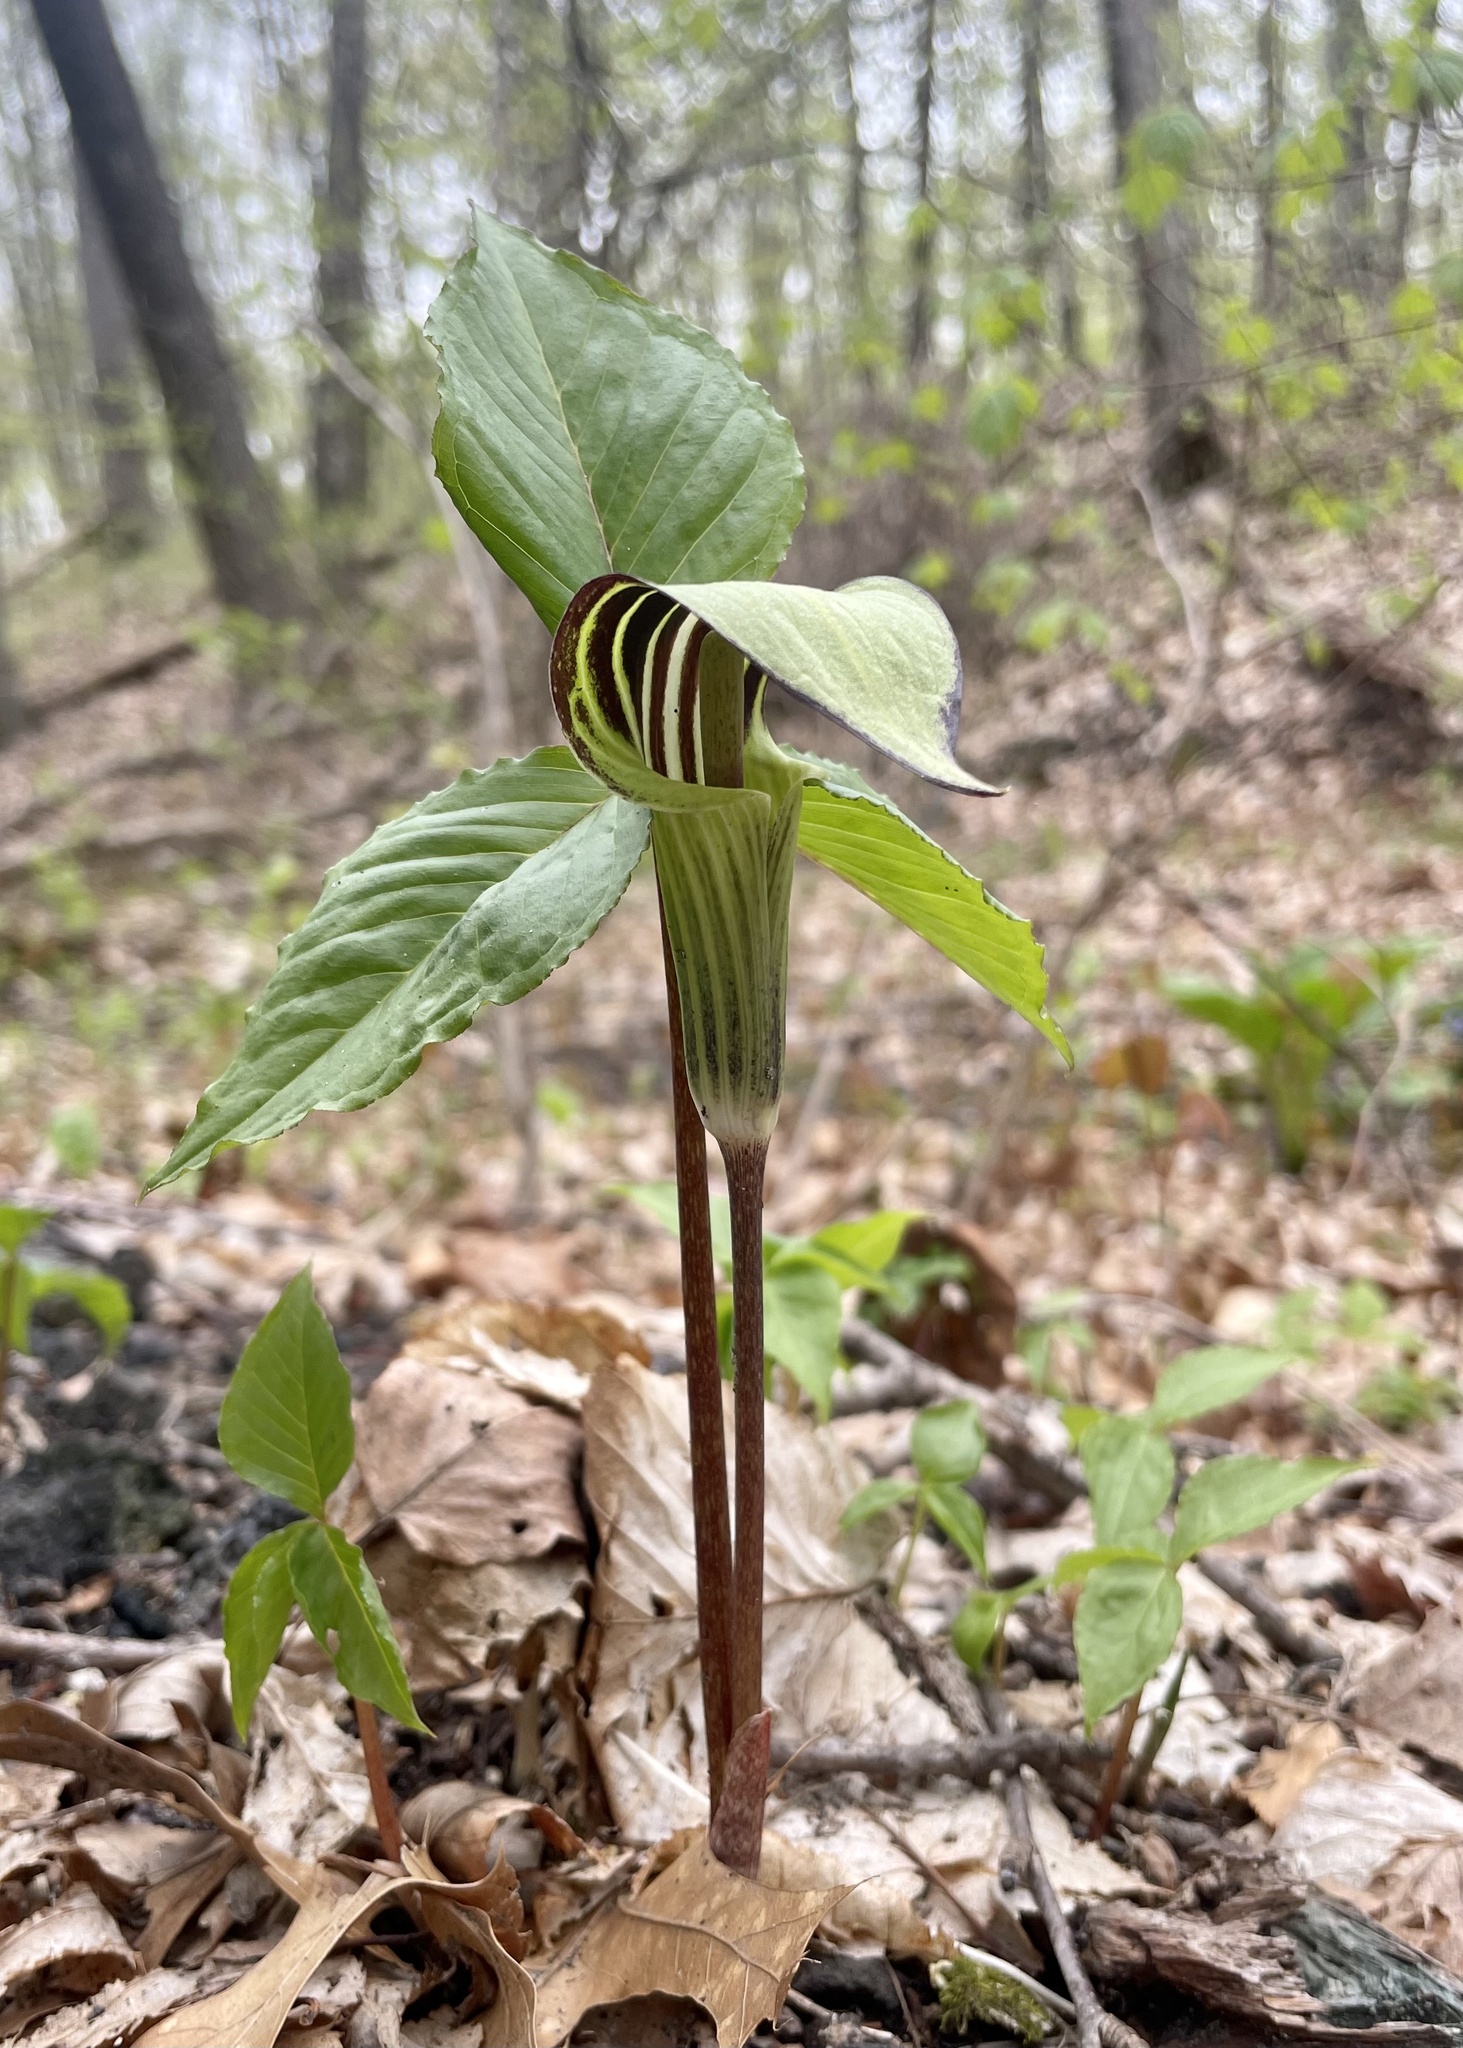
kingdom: Plantae
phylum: Tracheophyta
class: Liliopsida
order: Alismatales
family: Araceae
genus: Arisaema
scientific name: Arisaema triphyllum
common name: Jack-in-the-pulpit
